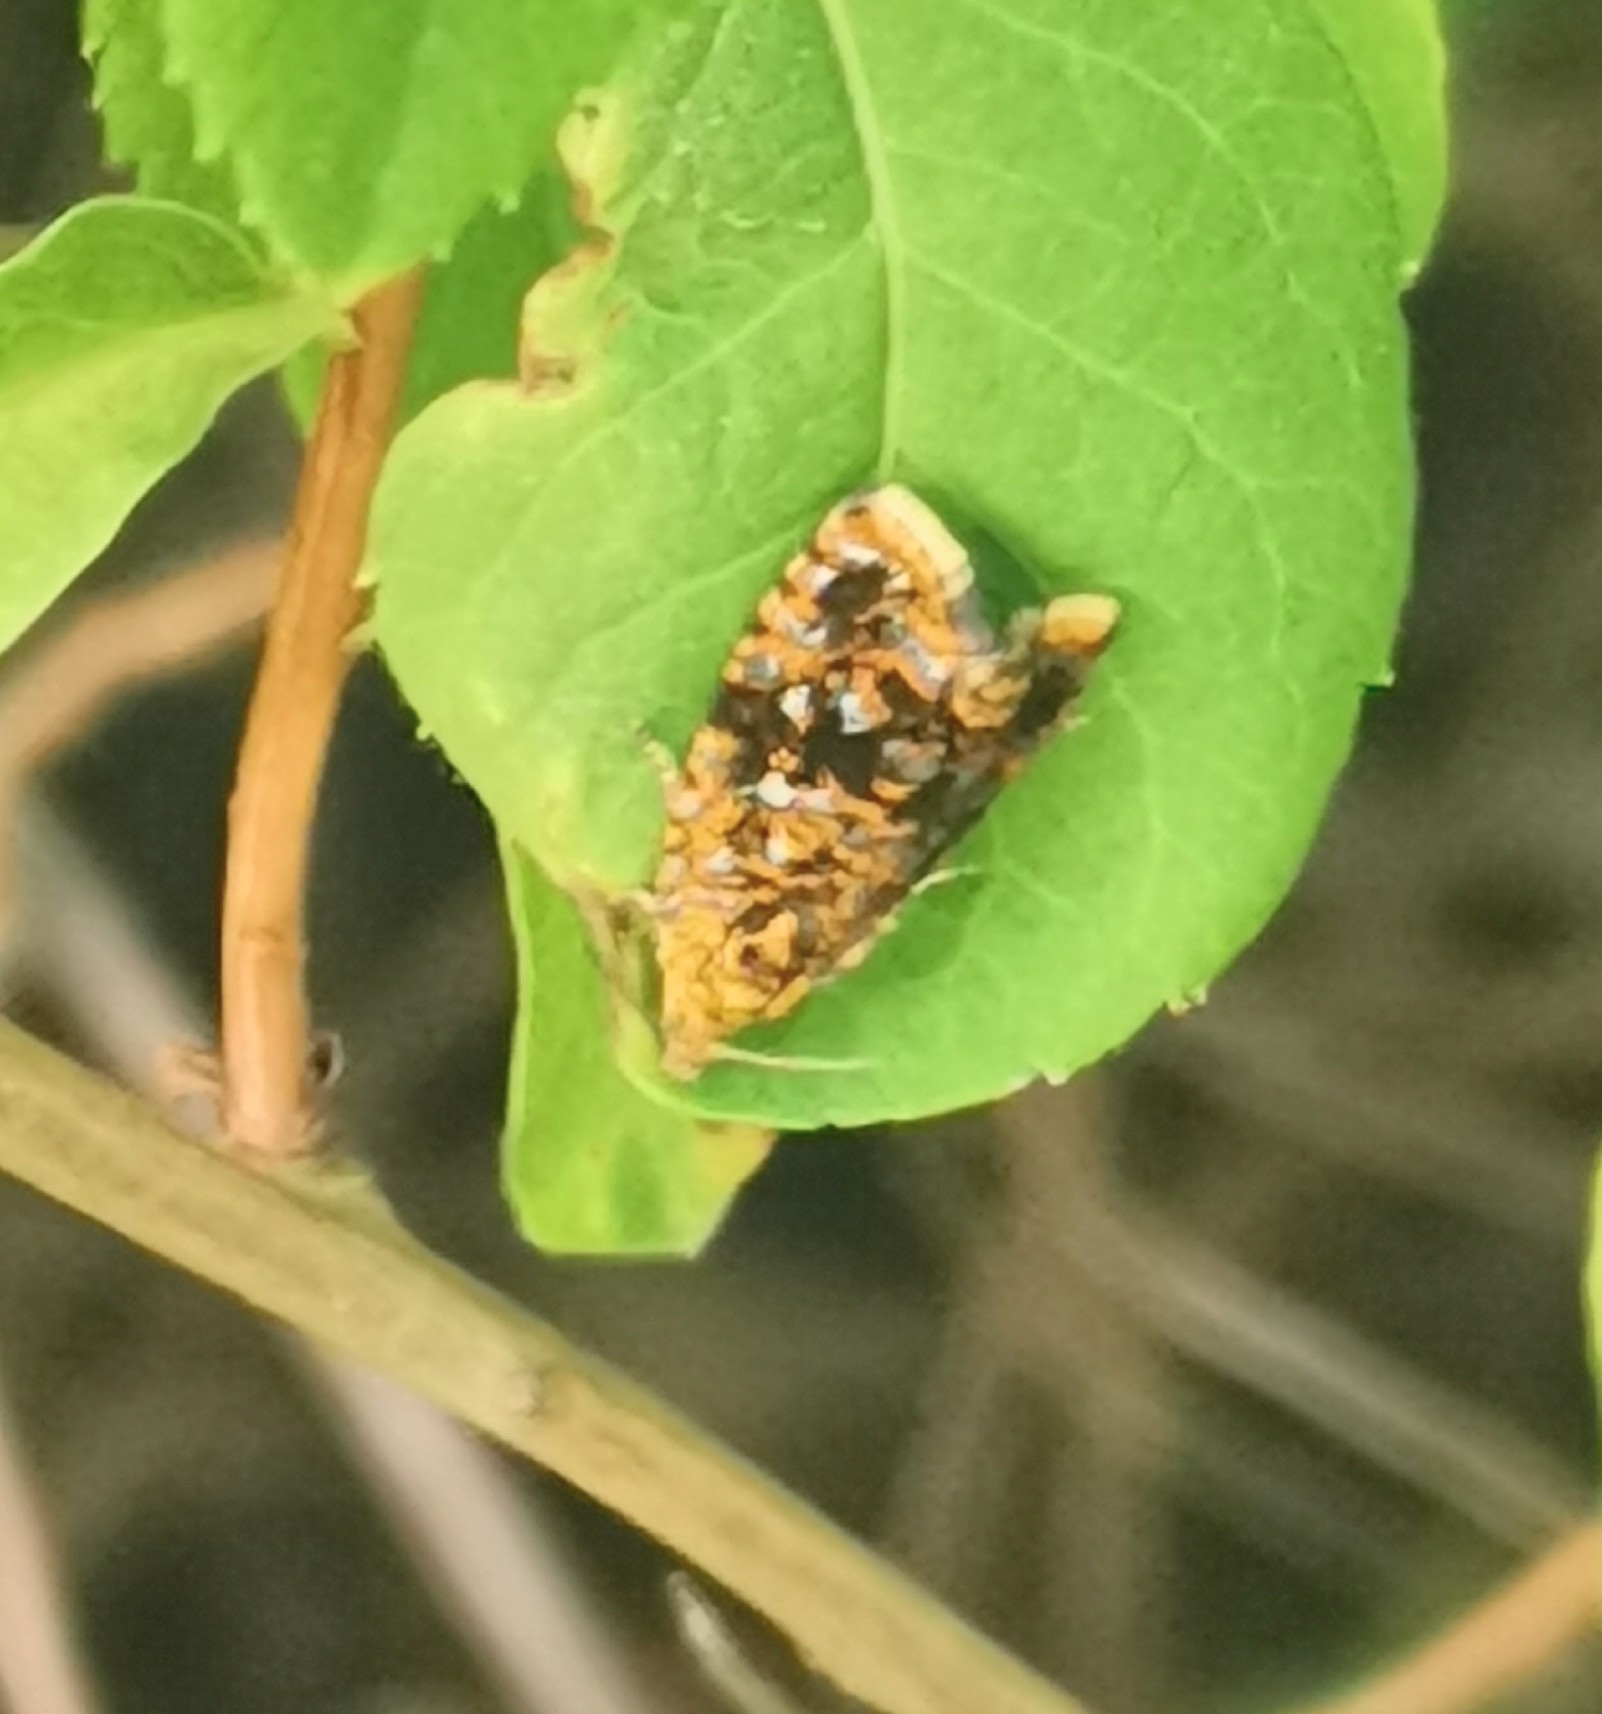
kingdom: Animalia
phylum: Arthropoda
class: Insecta
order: Lepidoptera
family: Tortricidae
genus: Phiaris
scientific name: Phiaris siderana
